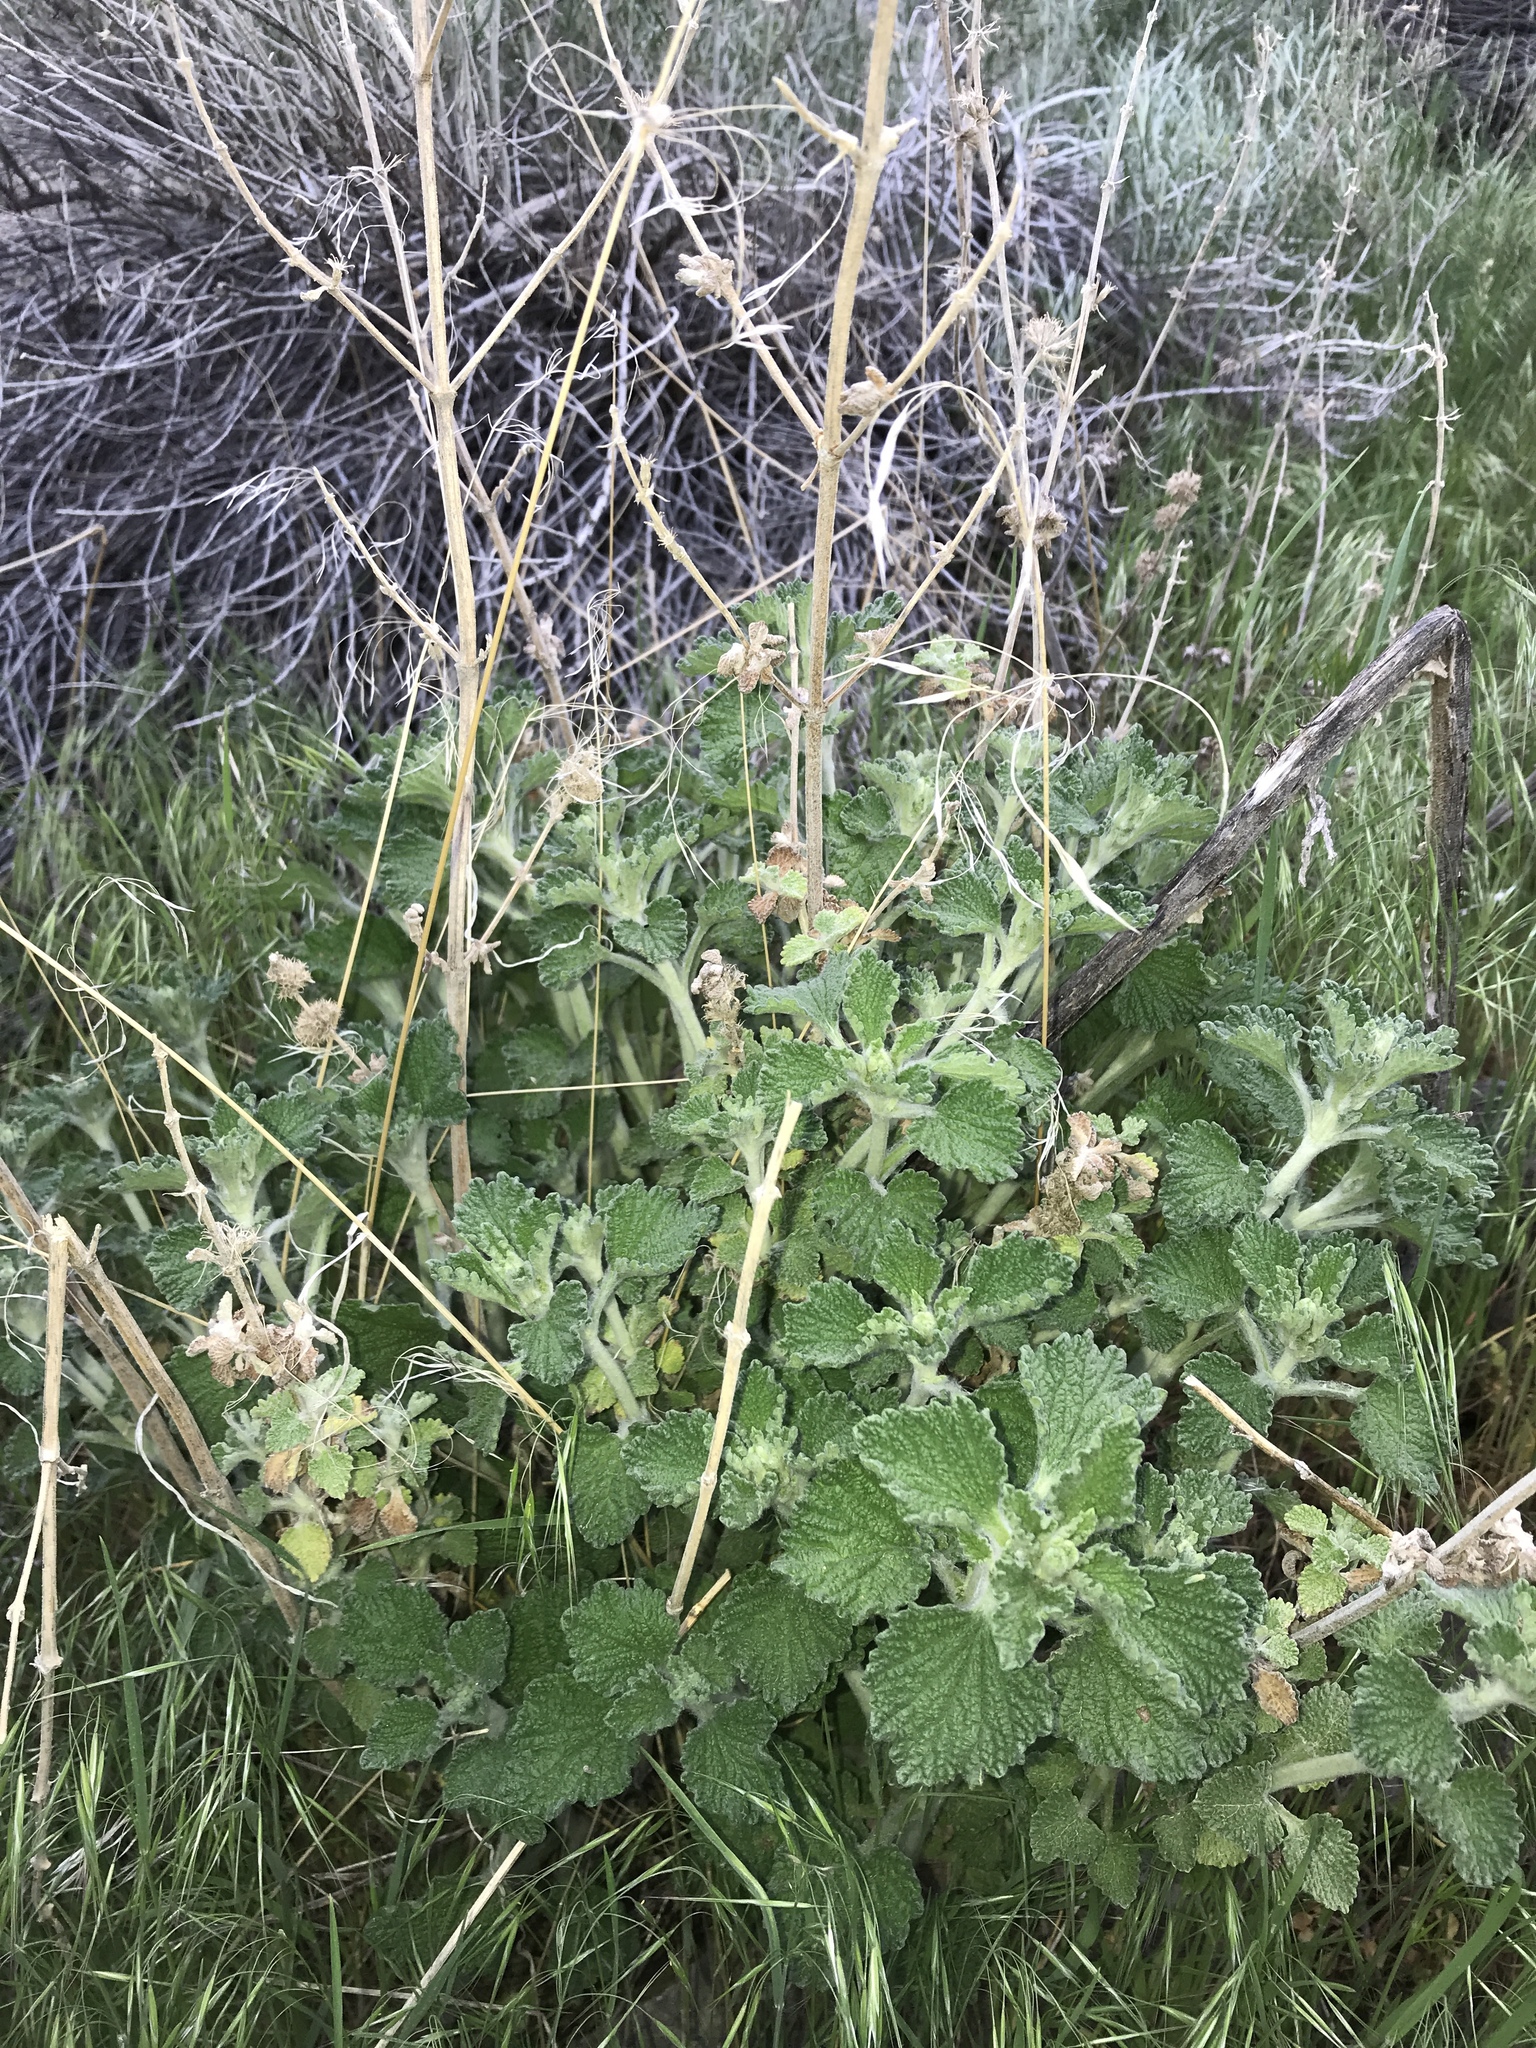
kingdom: Plantae
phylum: Tracheophyta
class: Magnoliopsida
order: Lamiales
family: Lamiaceae
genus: Marrubium
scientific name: Marrubium vulgare
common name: Horehound
